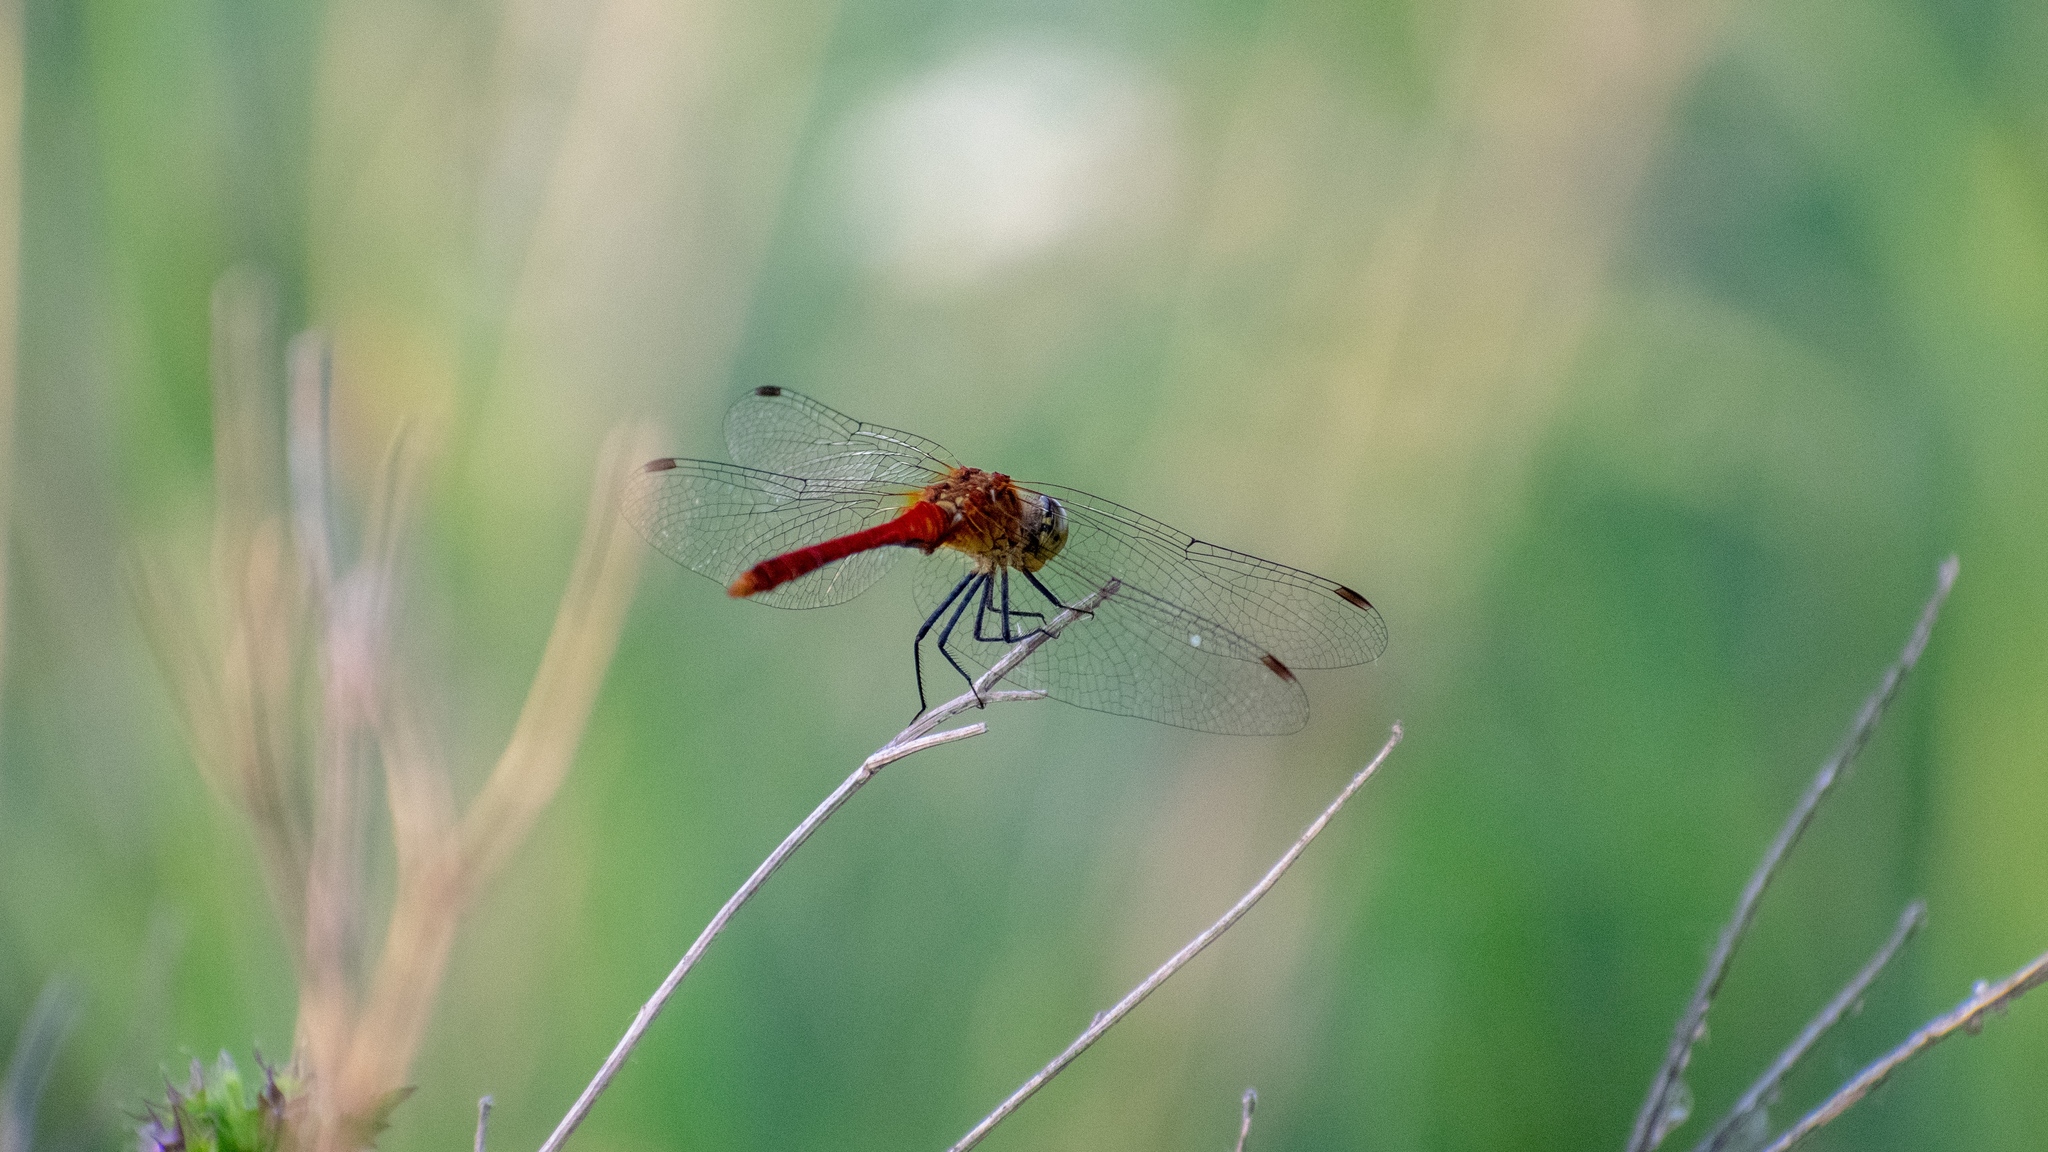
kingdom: Animalia
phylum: Arthropoda
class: Insecta
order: Odonata
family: Libellulidae
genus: Sympetrum
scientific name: Sympetrum sanguineum
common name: Ruddy darter
